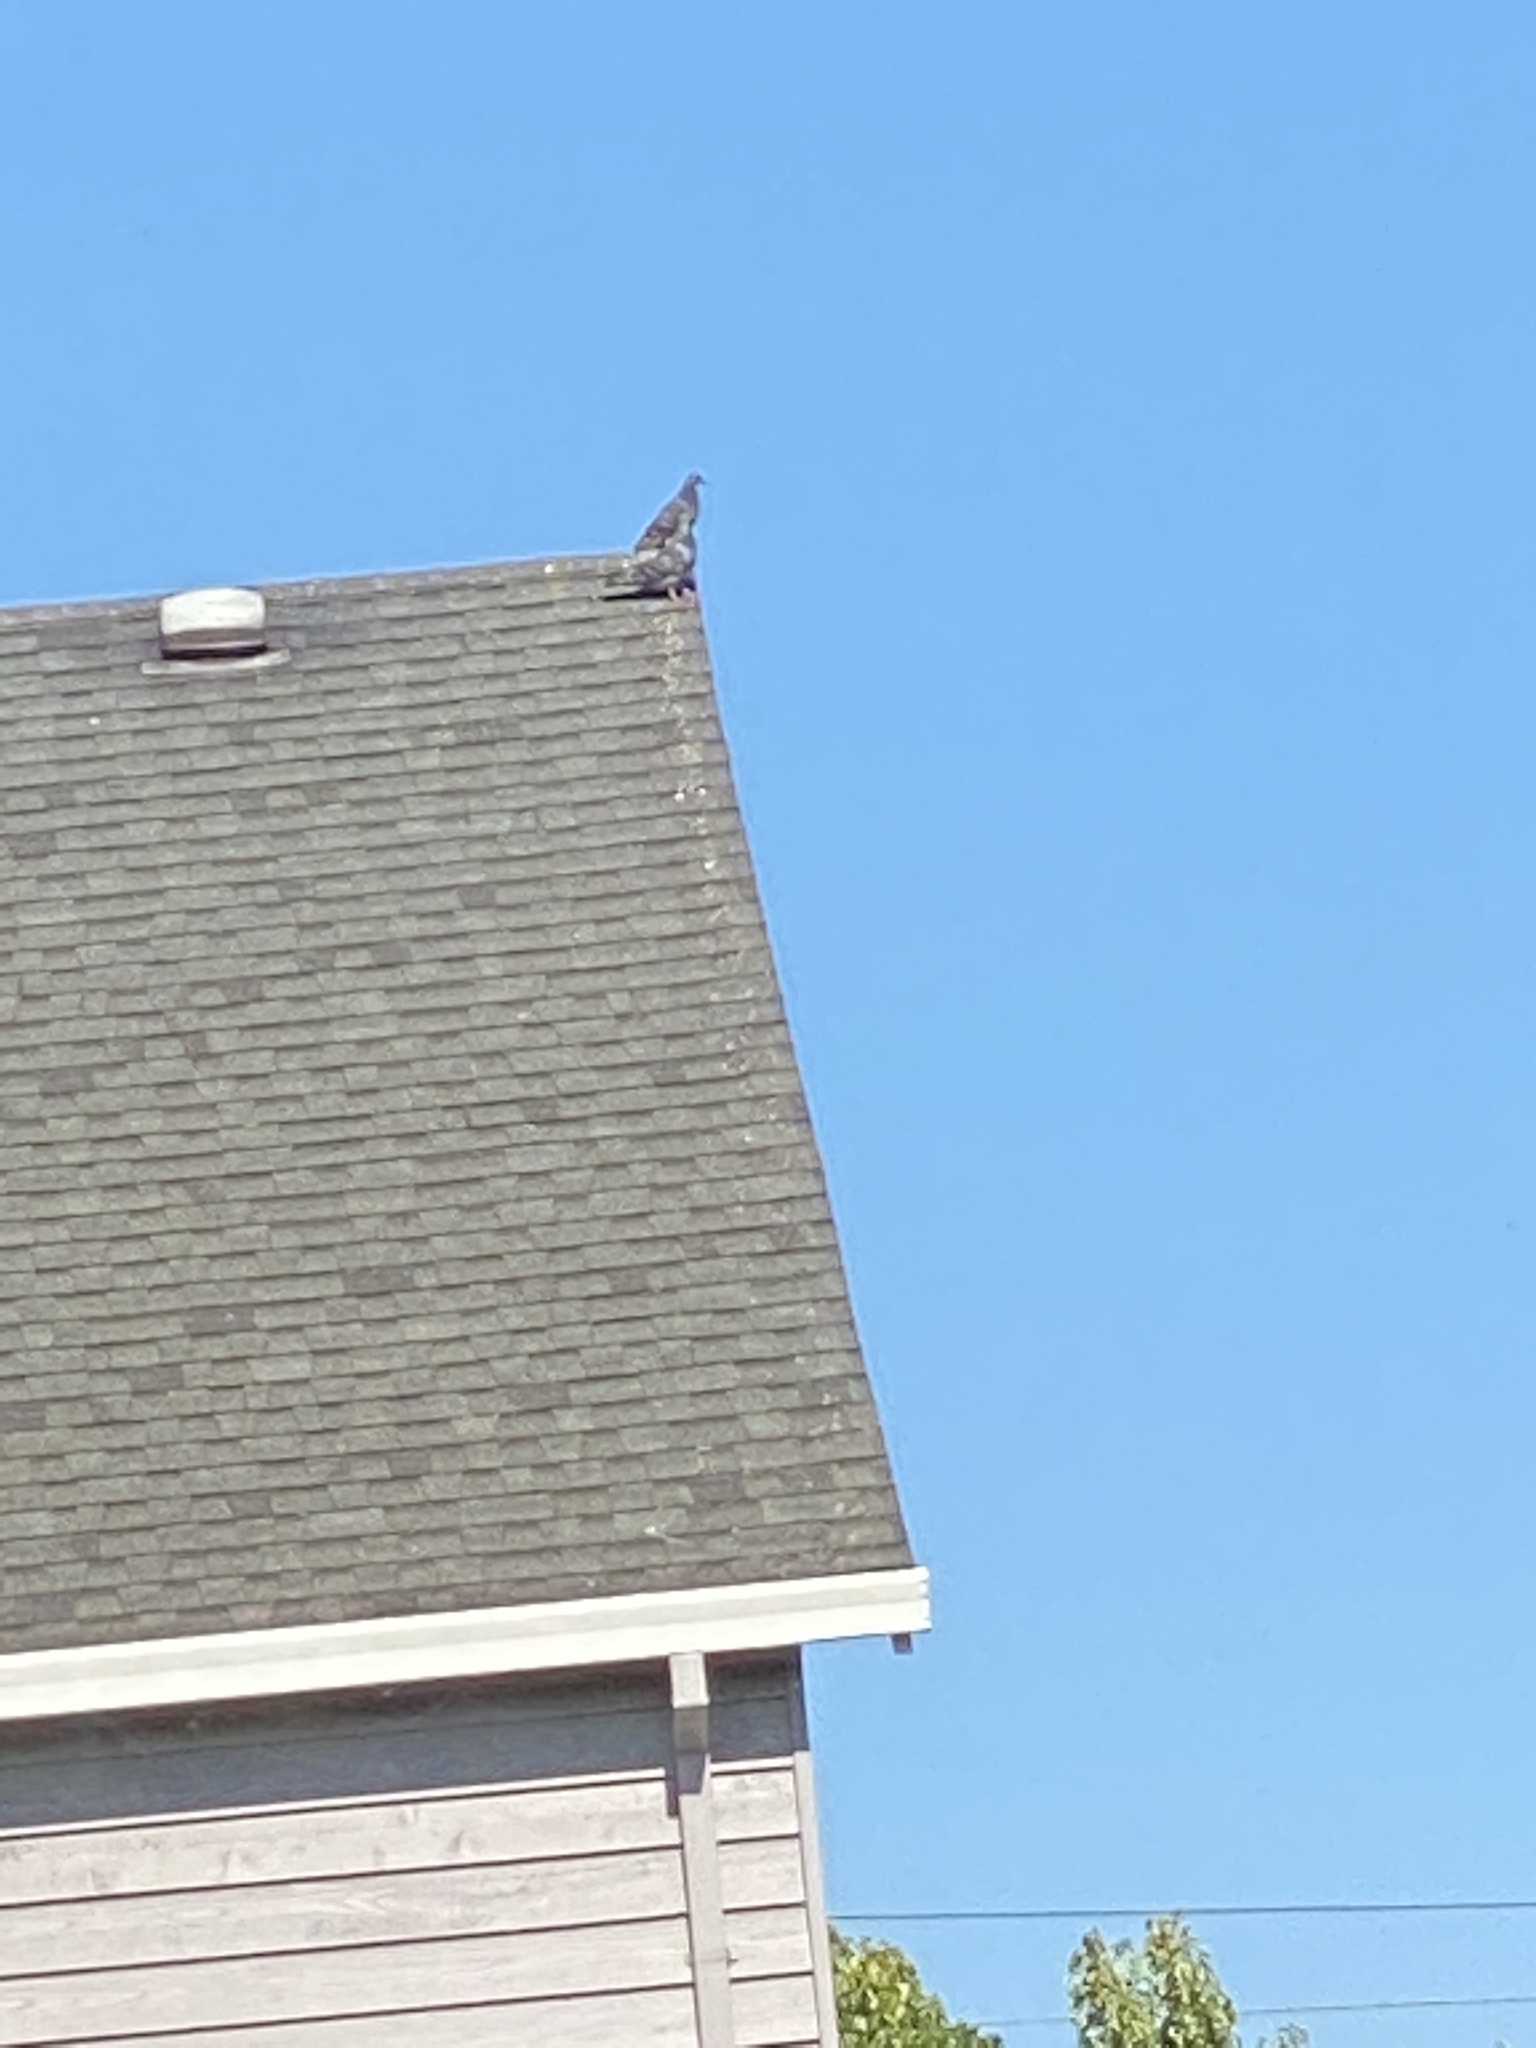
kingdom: Animalia
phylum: Chordata
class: Aves
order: Columbiformes
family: Columbidae
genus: Columba
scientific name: Columba livia
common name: Rock pigeon
